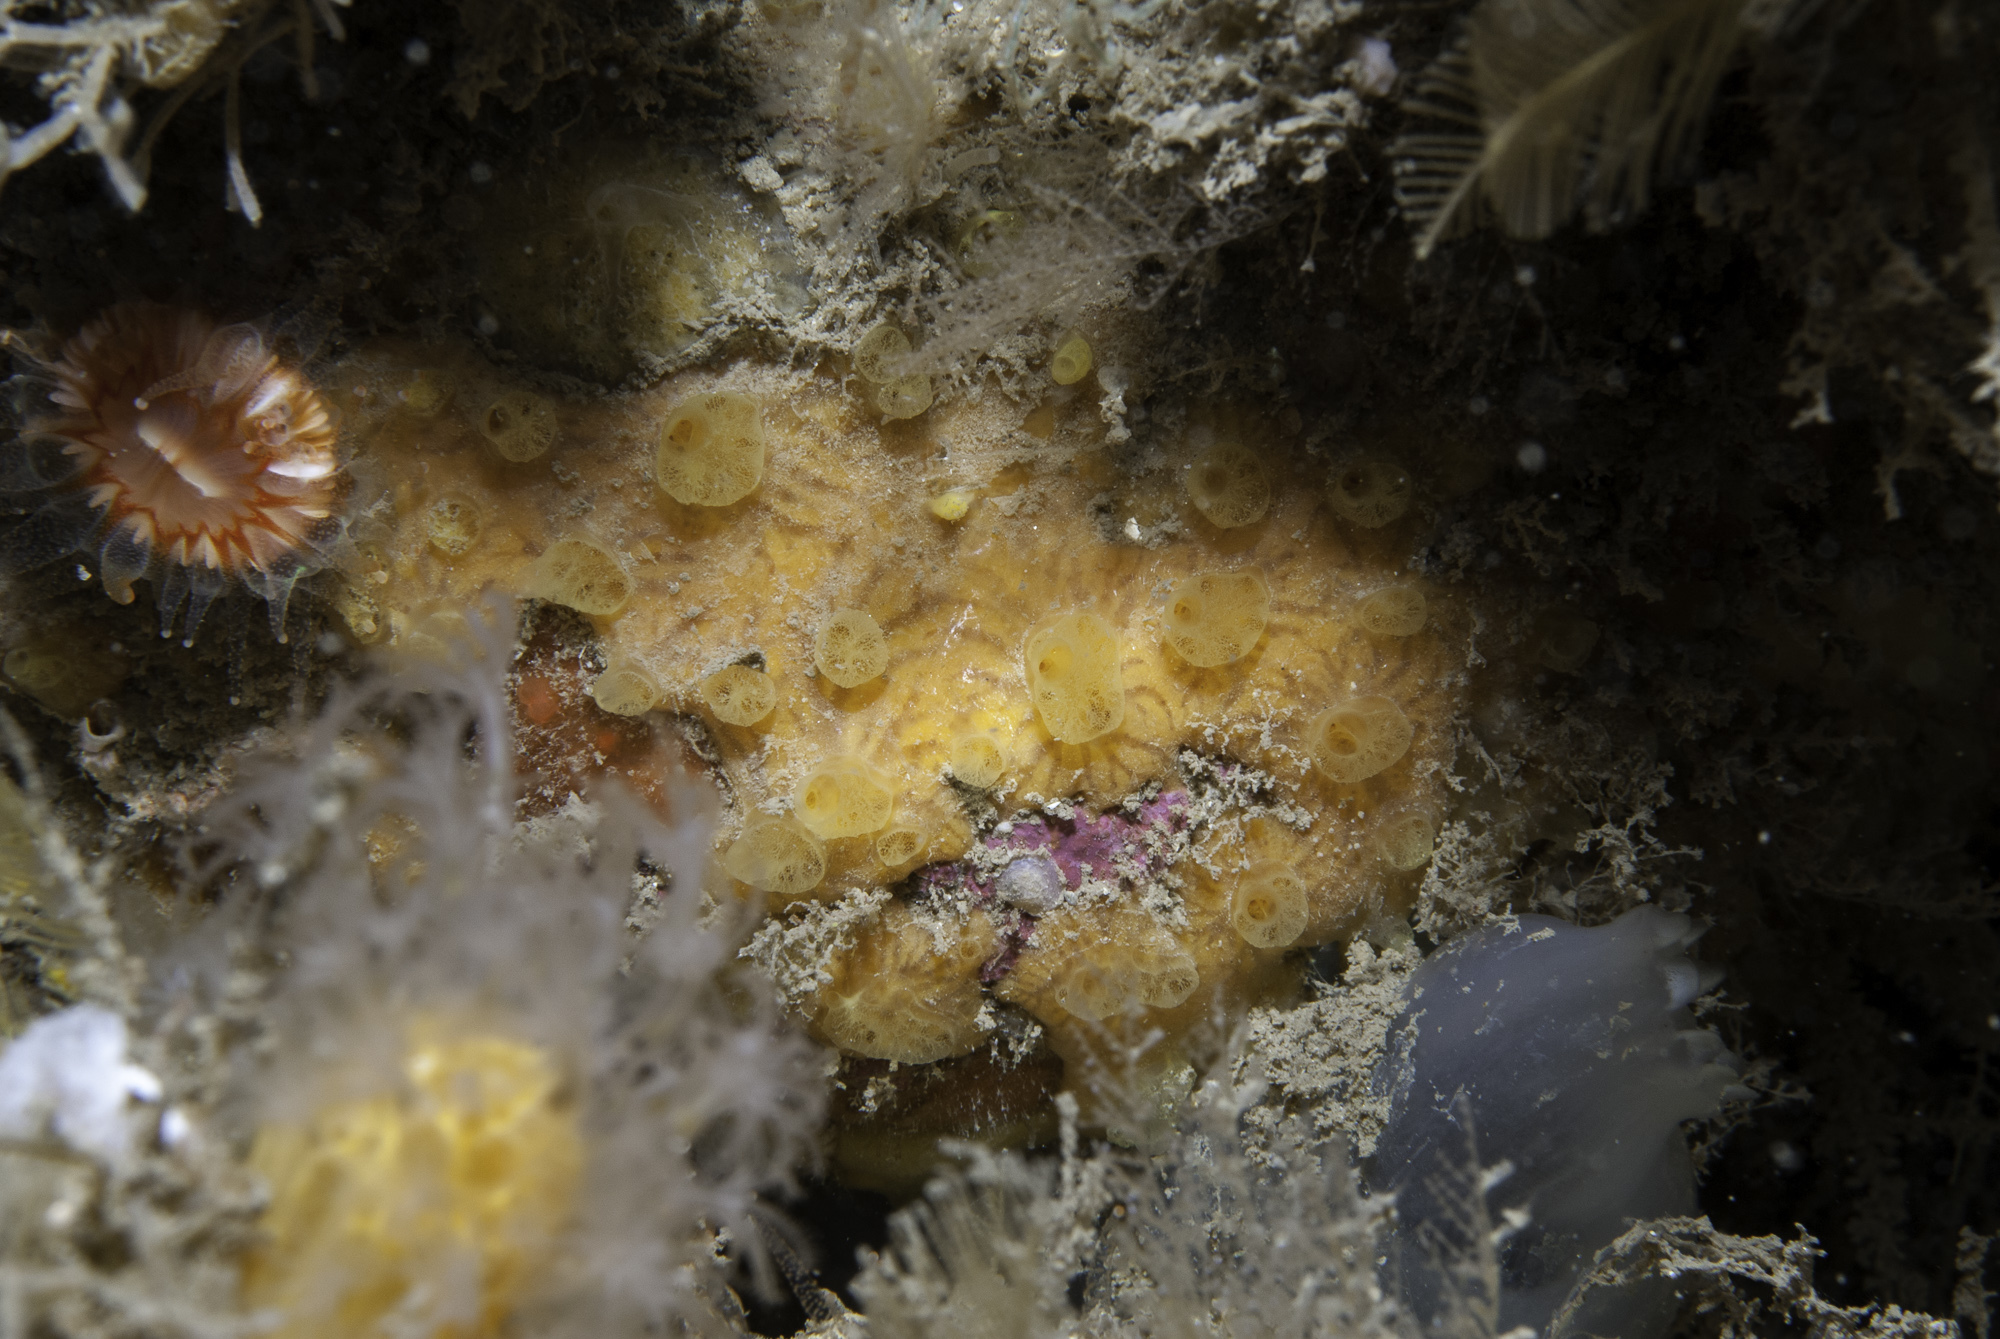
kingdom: Animalia
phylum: Porifera
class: Demospongiae
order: Poecilosclerida
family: Hymedesmiidae
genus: Hymedesmia
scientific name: Hymedesmia rathlinia
